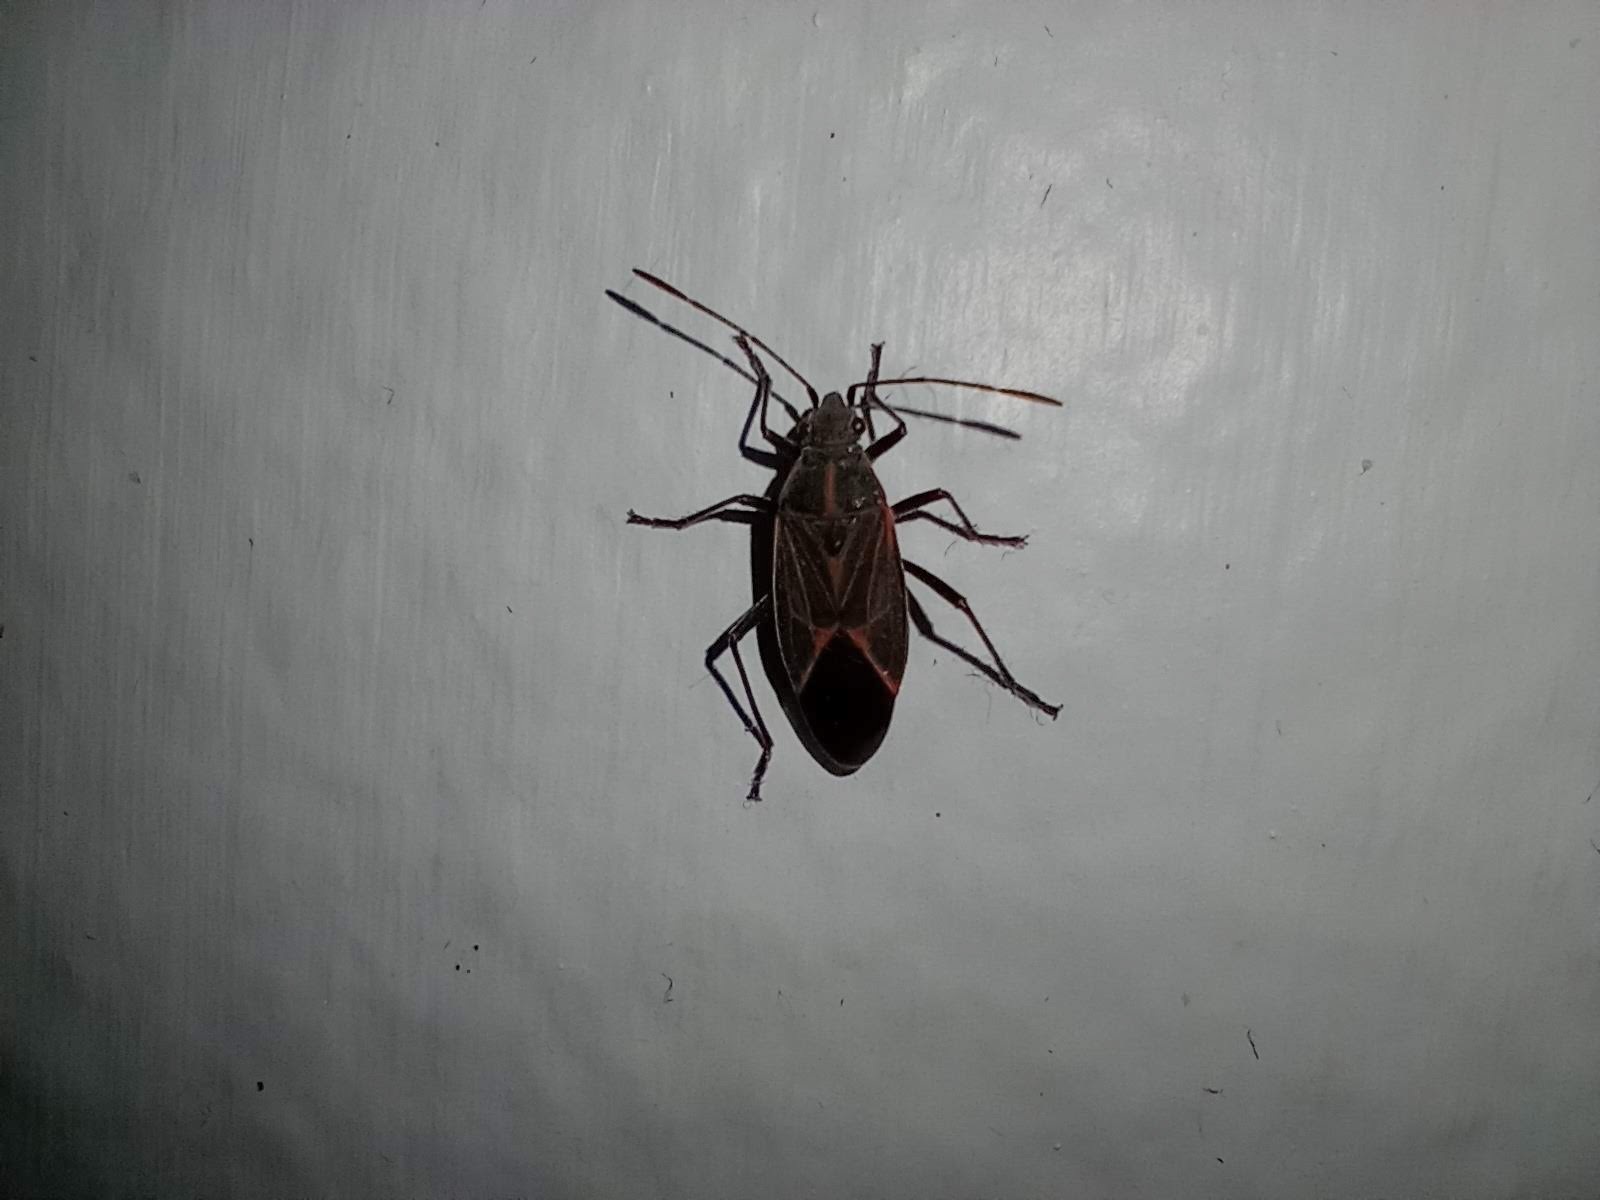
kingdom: Animalia
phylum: Arthropoda
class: Insecta
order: Hemiptera
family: Rhopalidae
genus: Boisea
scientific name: Boisea rubrolineata
